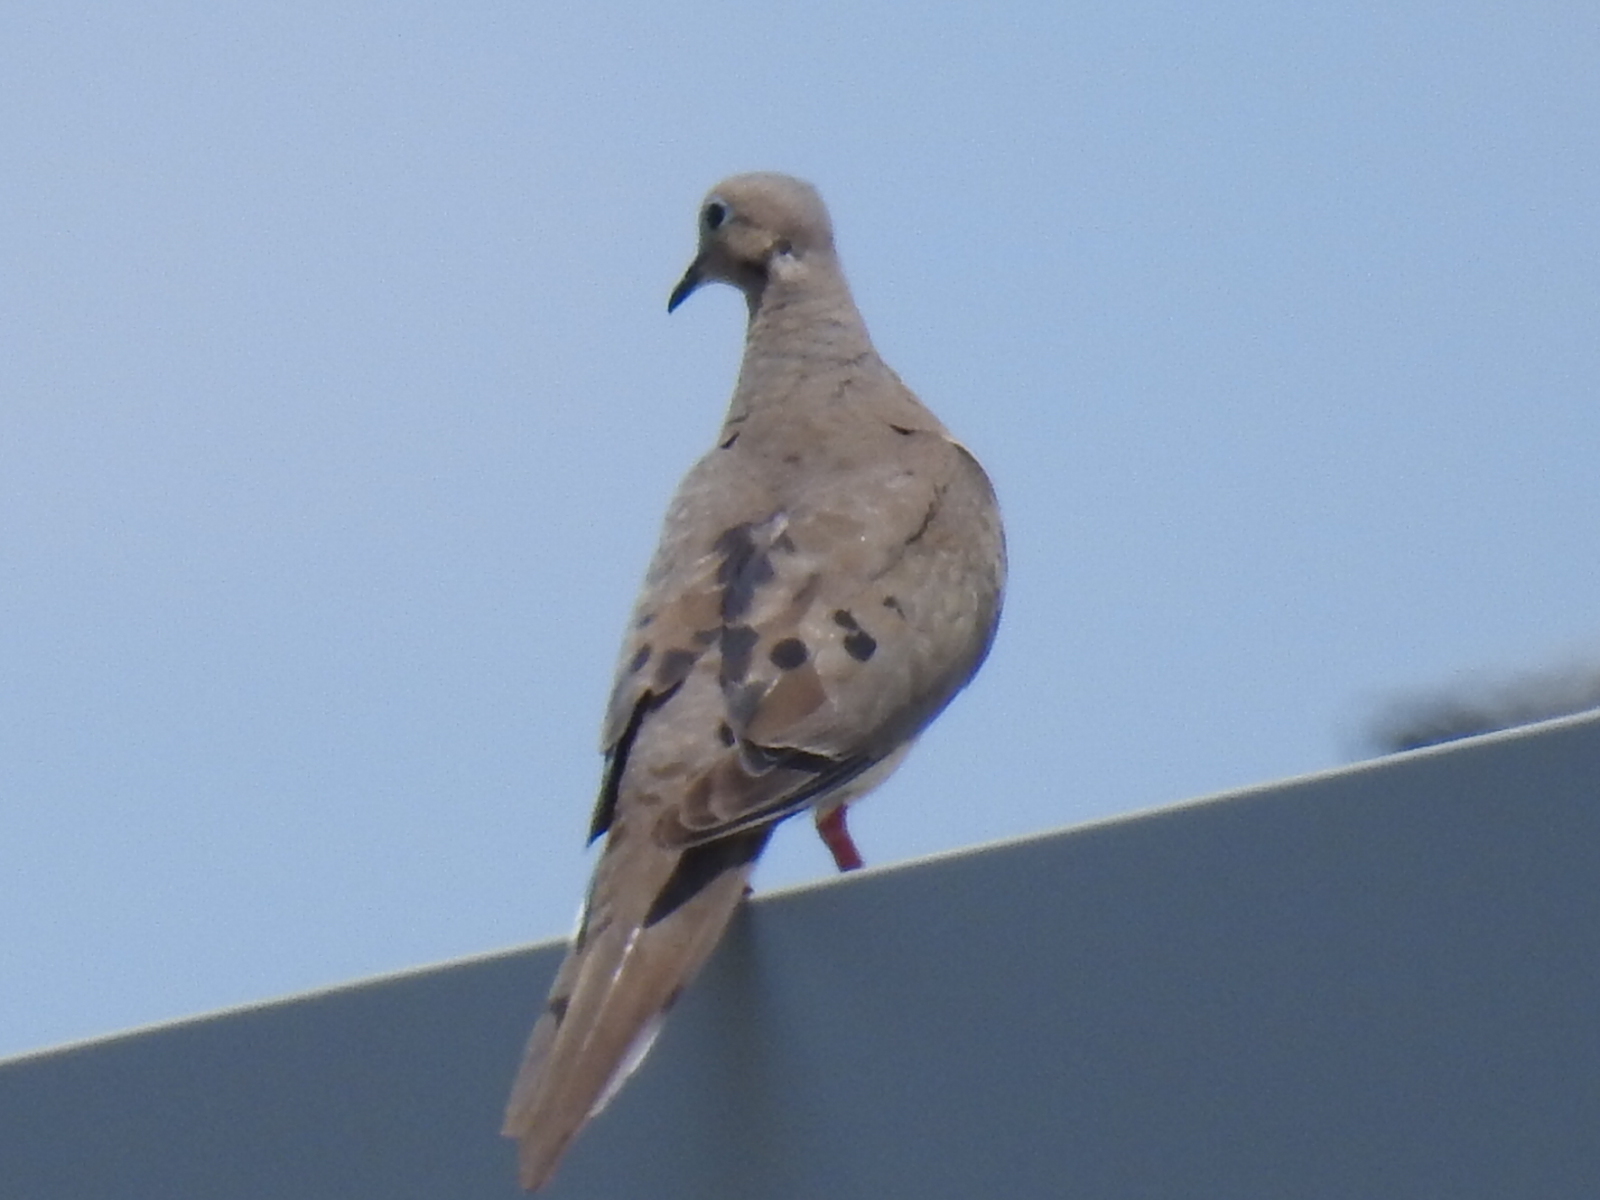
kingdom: Animalia
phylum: Chordata
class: Aves
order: Columbiformes
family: Columbidae
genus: Zenaida
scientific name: Zenaida macroura
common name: Mourning dove
